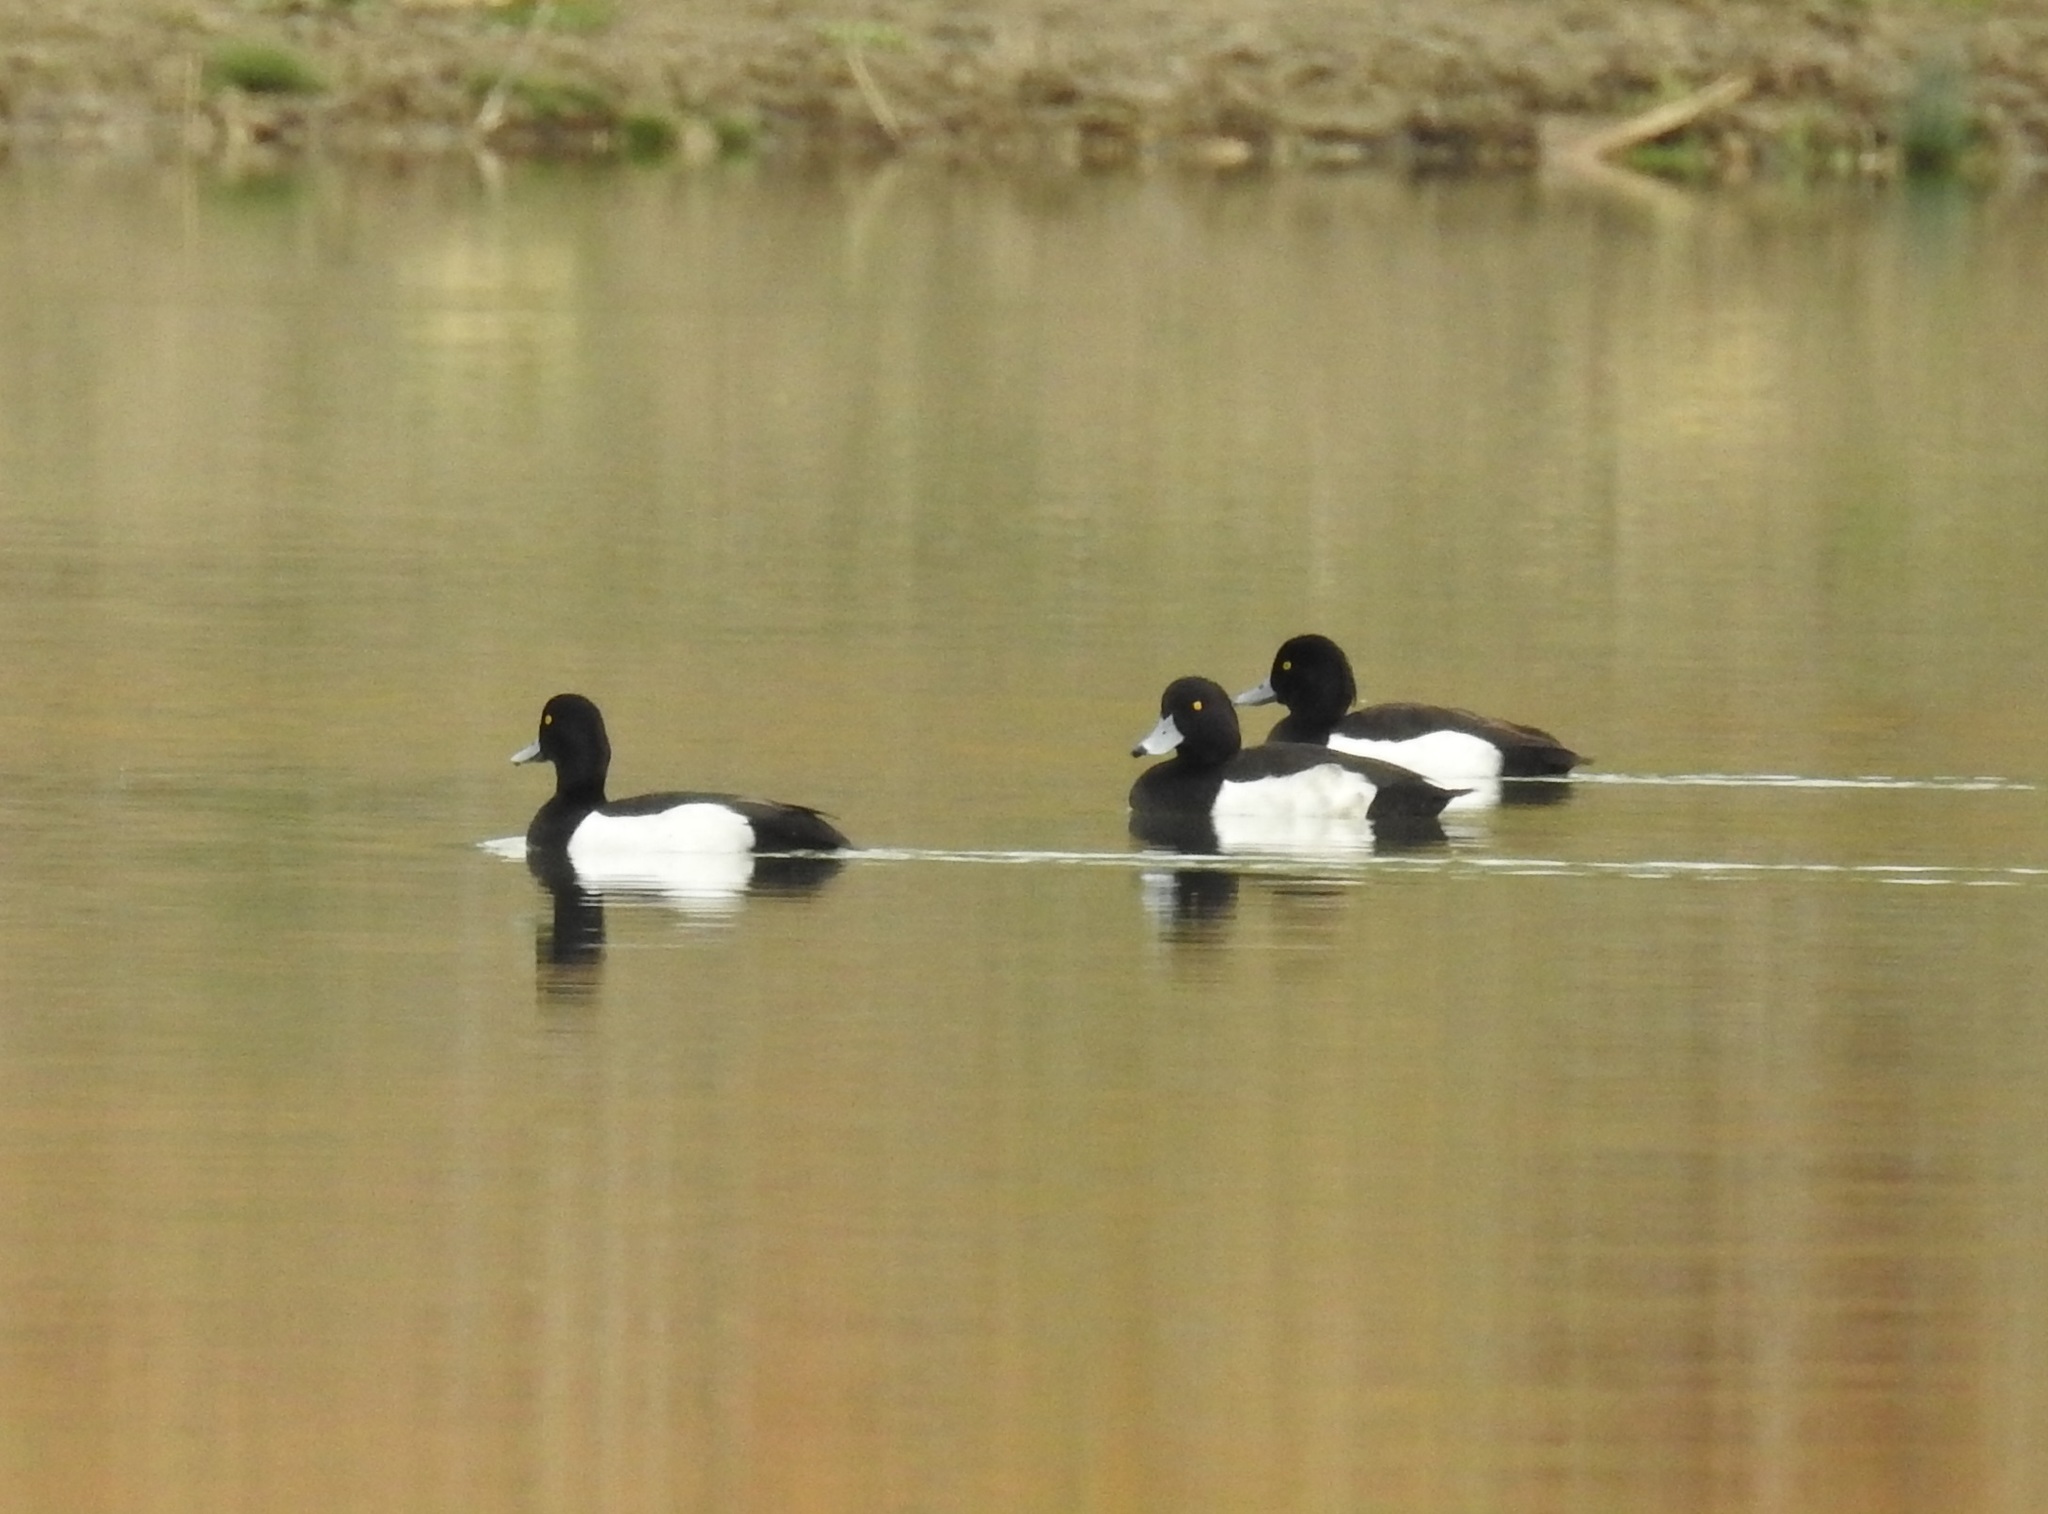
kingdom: Animalia
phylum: Chordata
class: Aves
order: Anseriformes
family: Anatidae
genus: Aythya
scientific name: Aythya fuligula
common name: Tufted duck
